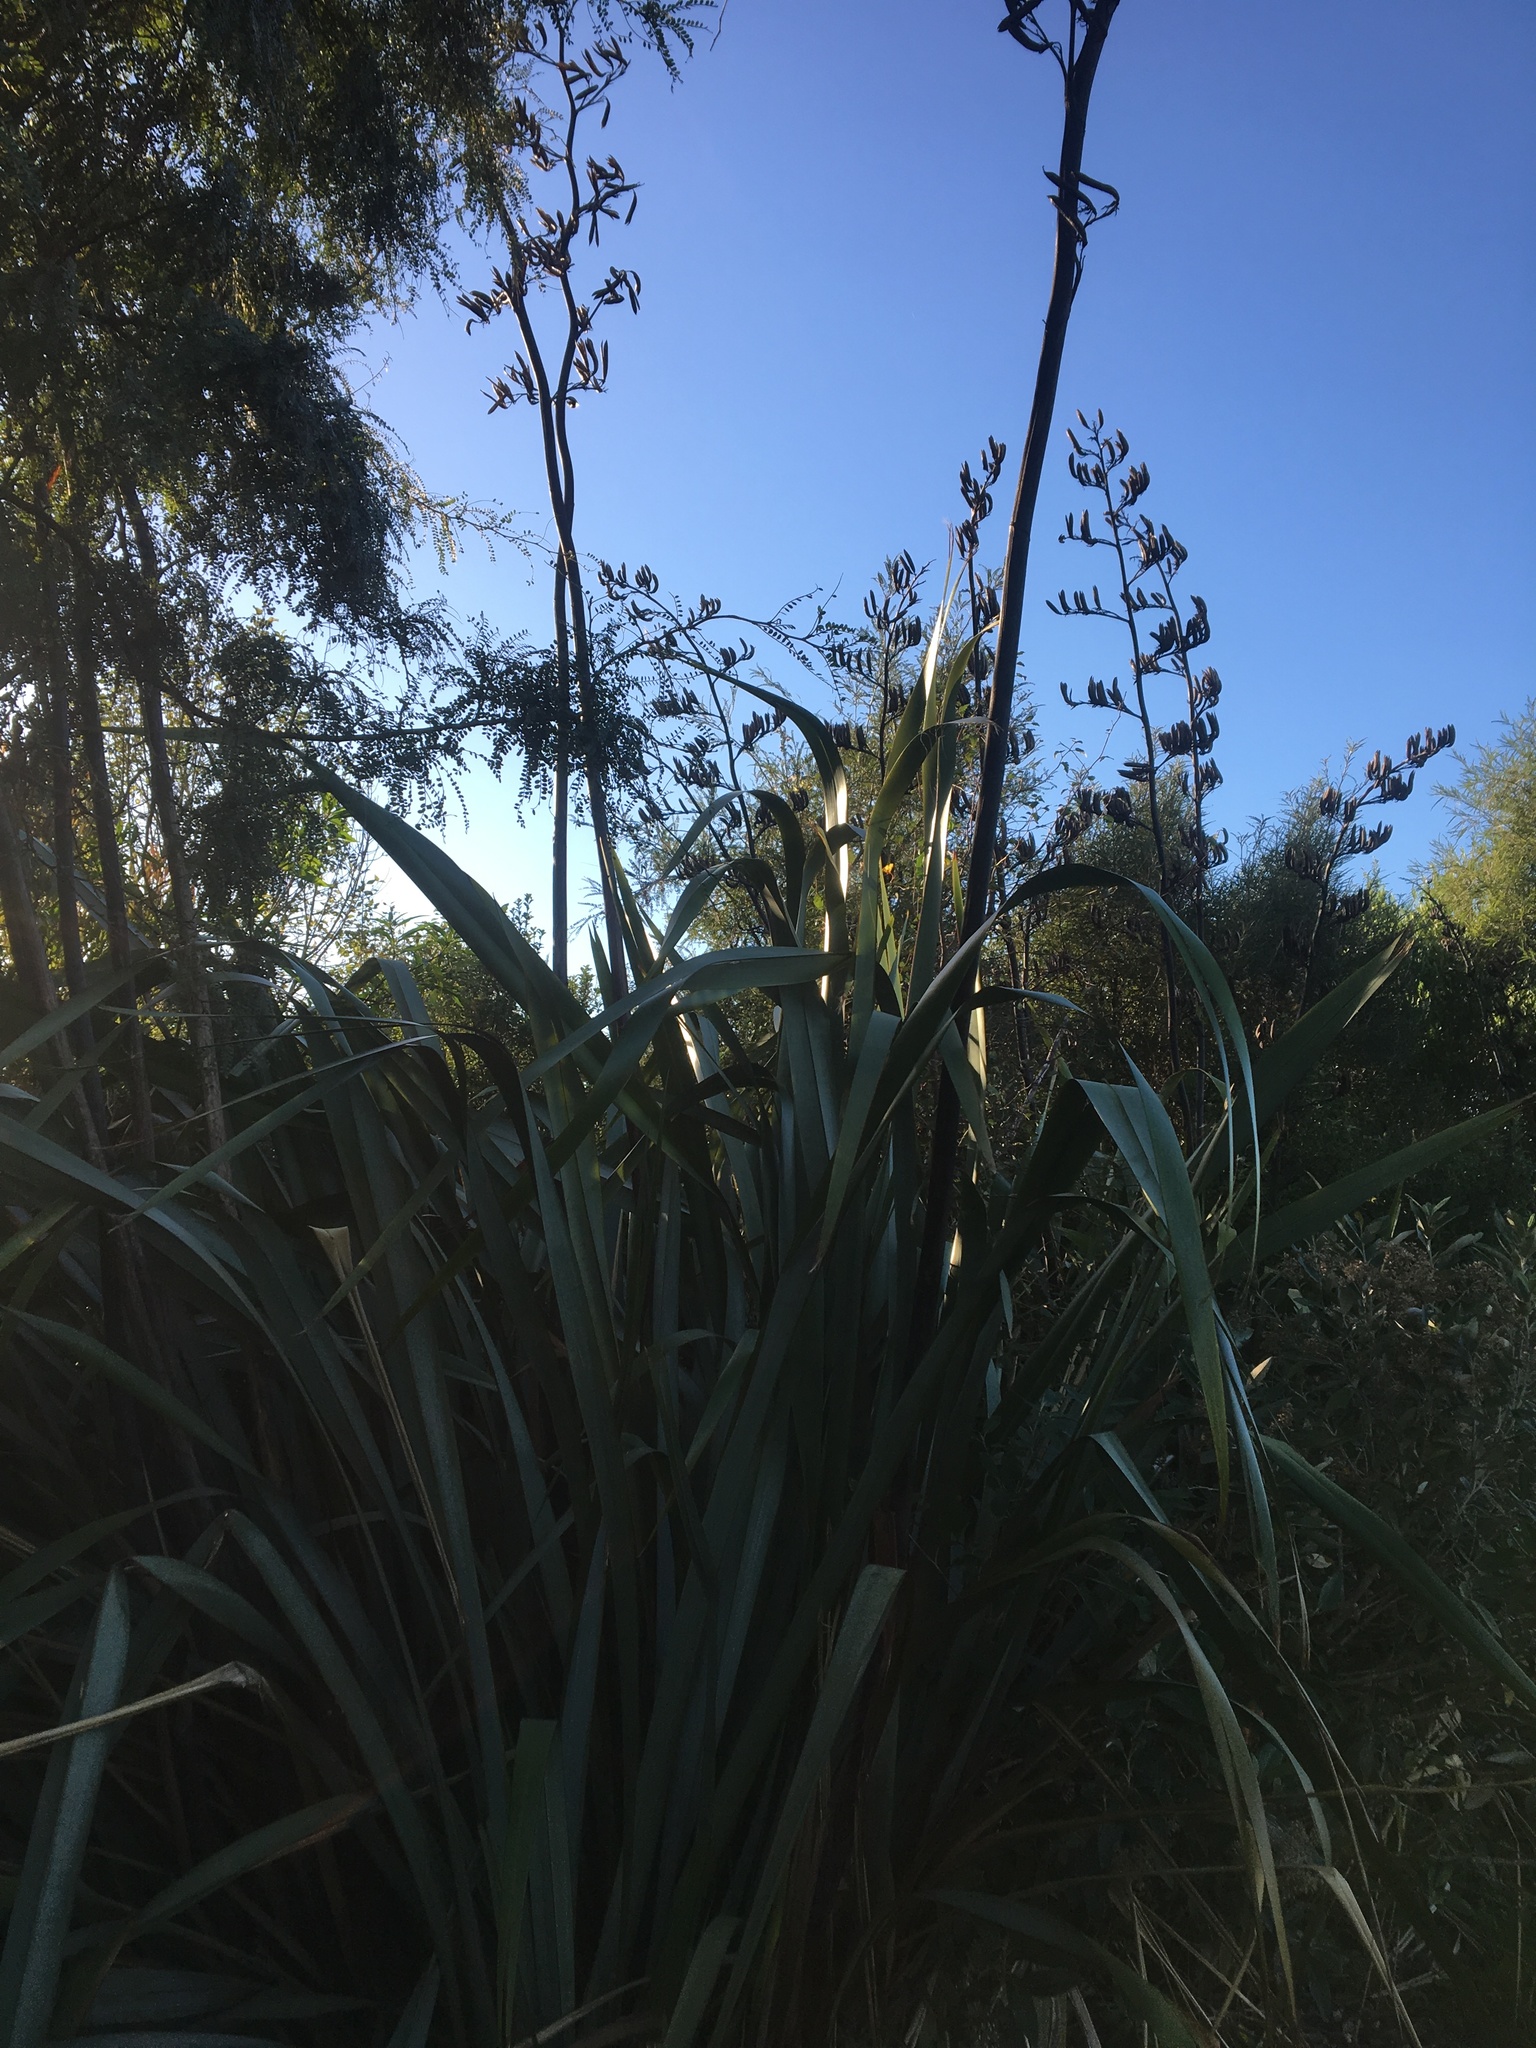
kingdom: Plantae
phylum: Tracheophyta
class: Liliopsida
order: Asparagales
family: Asphodelaceae
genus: Phormium
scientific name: Phormium tenax
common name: New zealand flax
